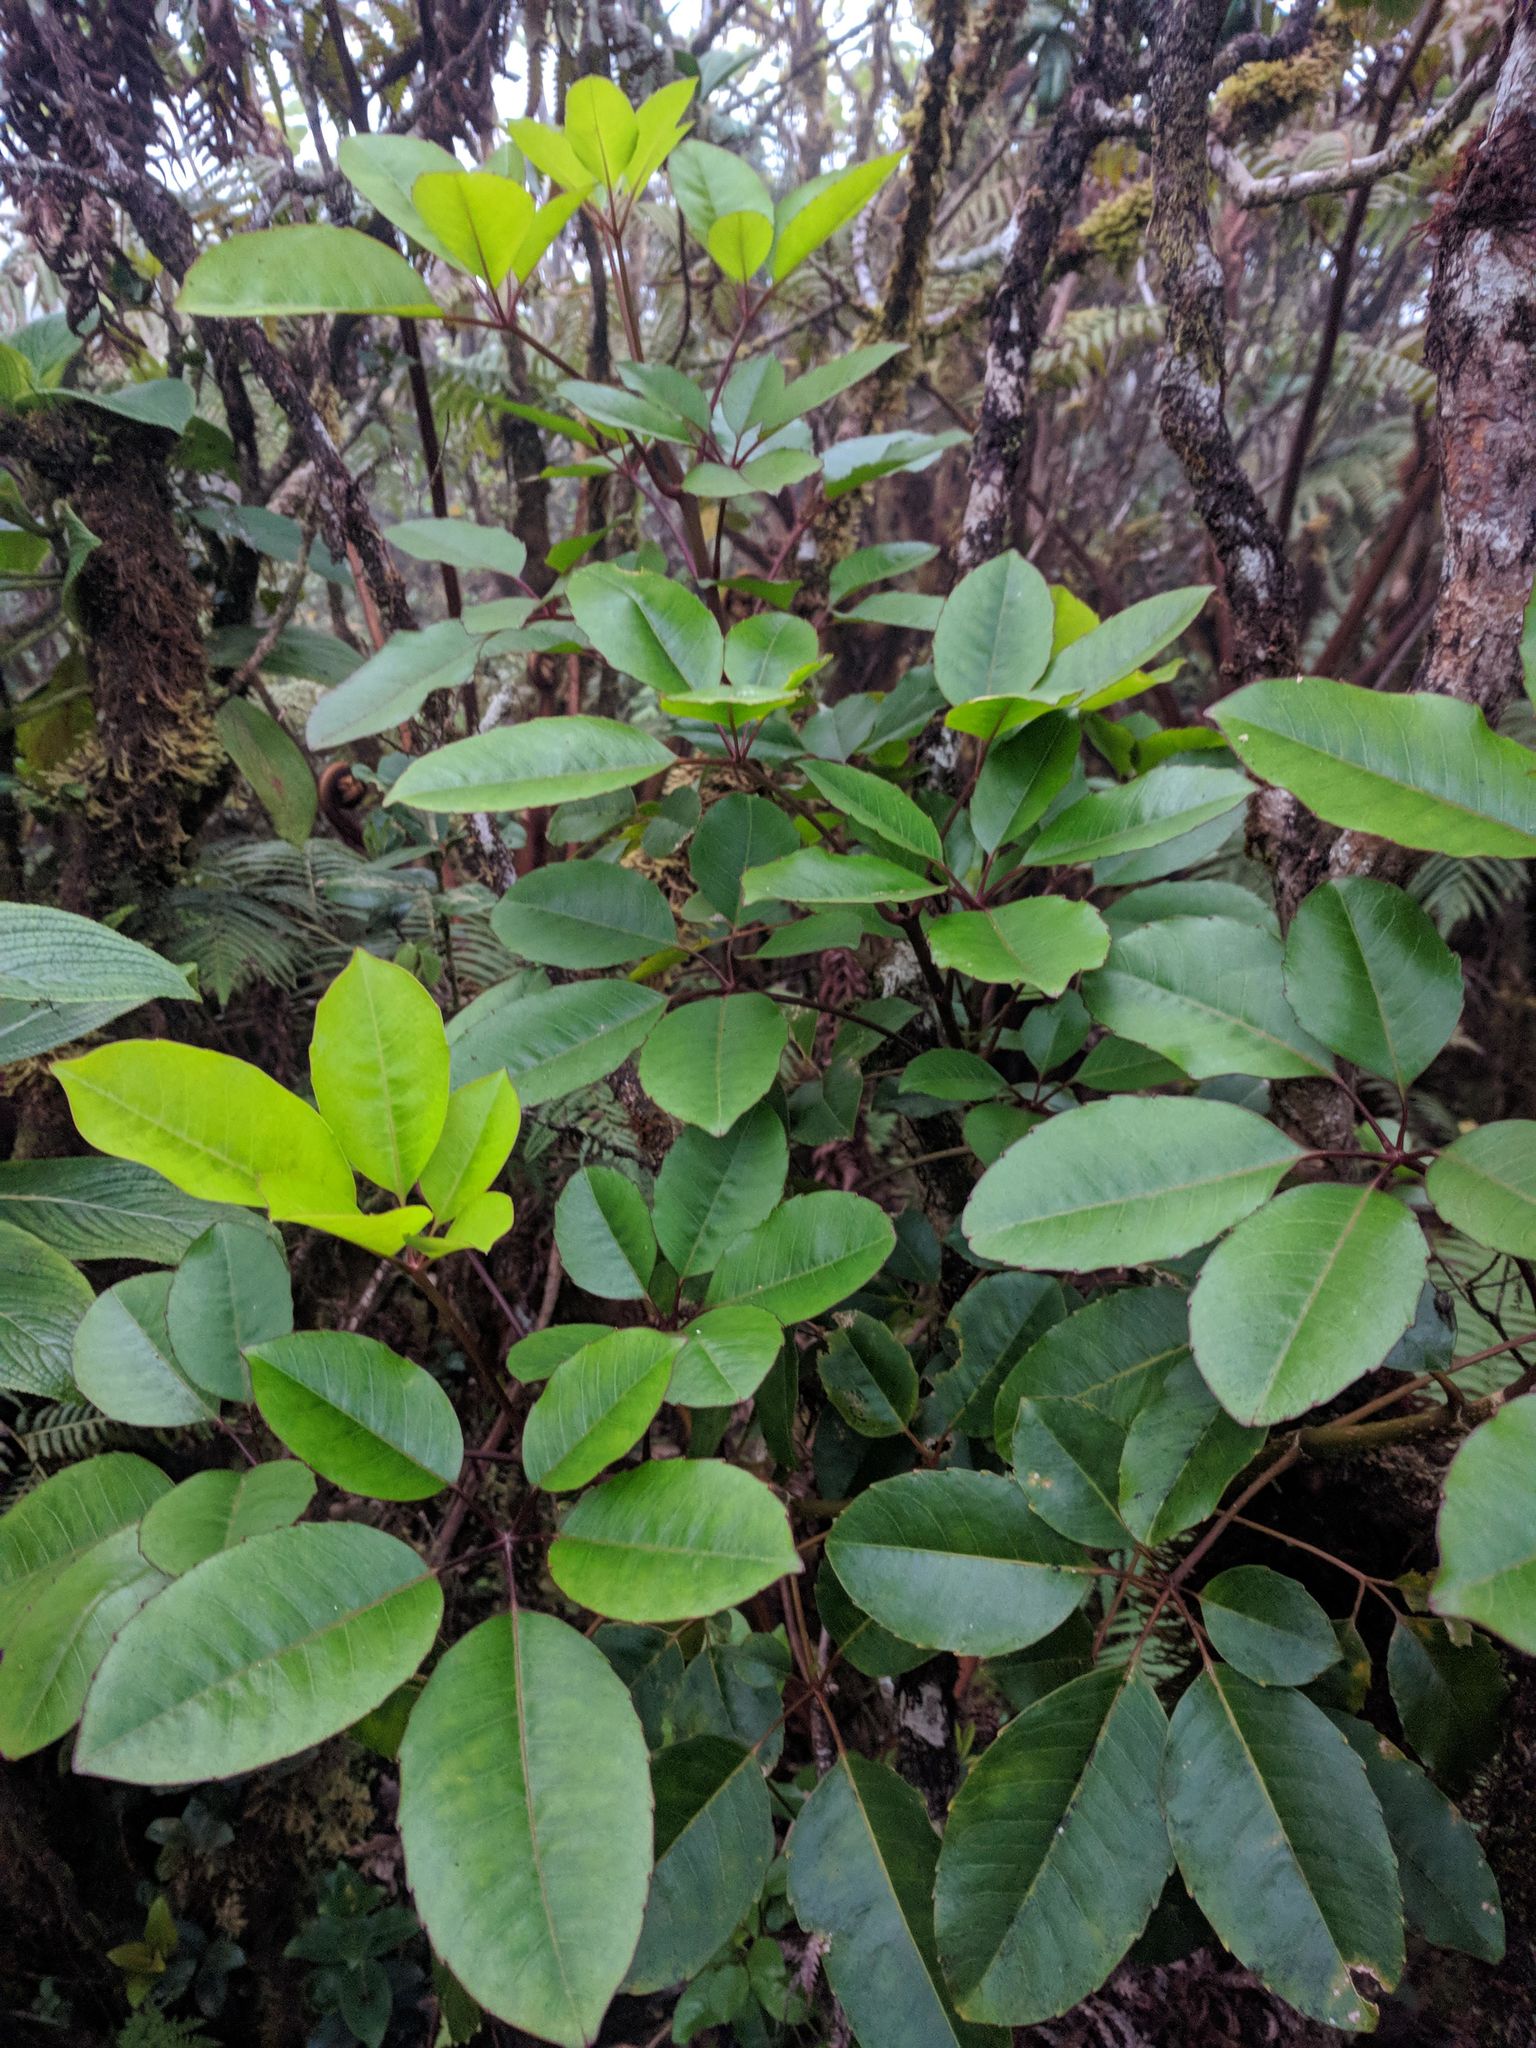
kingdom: Plantae
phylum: Tracheophyta
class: Magnoliopsida
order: Apiales
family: Araliaceae
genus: Cheirodendron
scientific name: Cheirodendron trigynum
